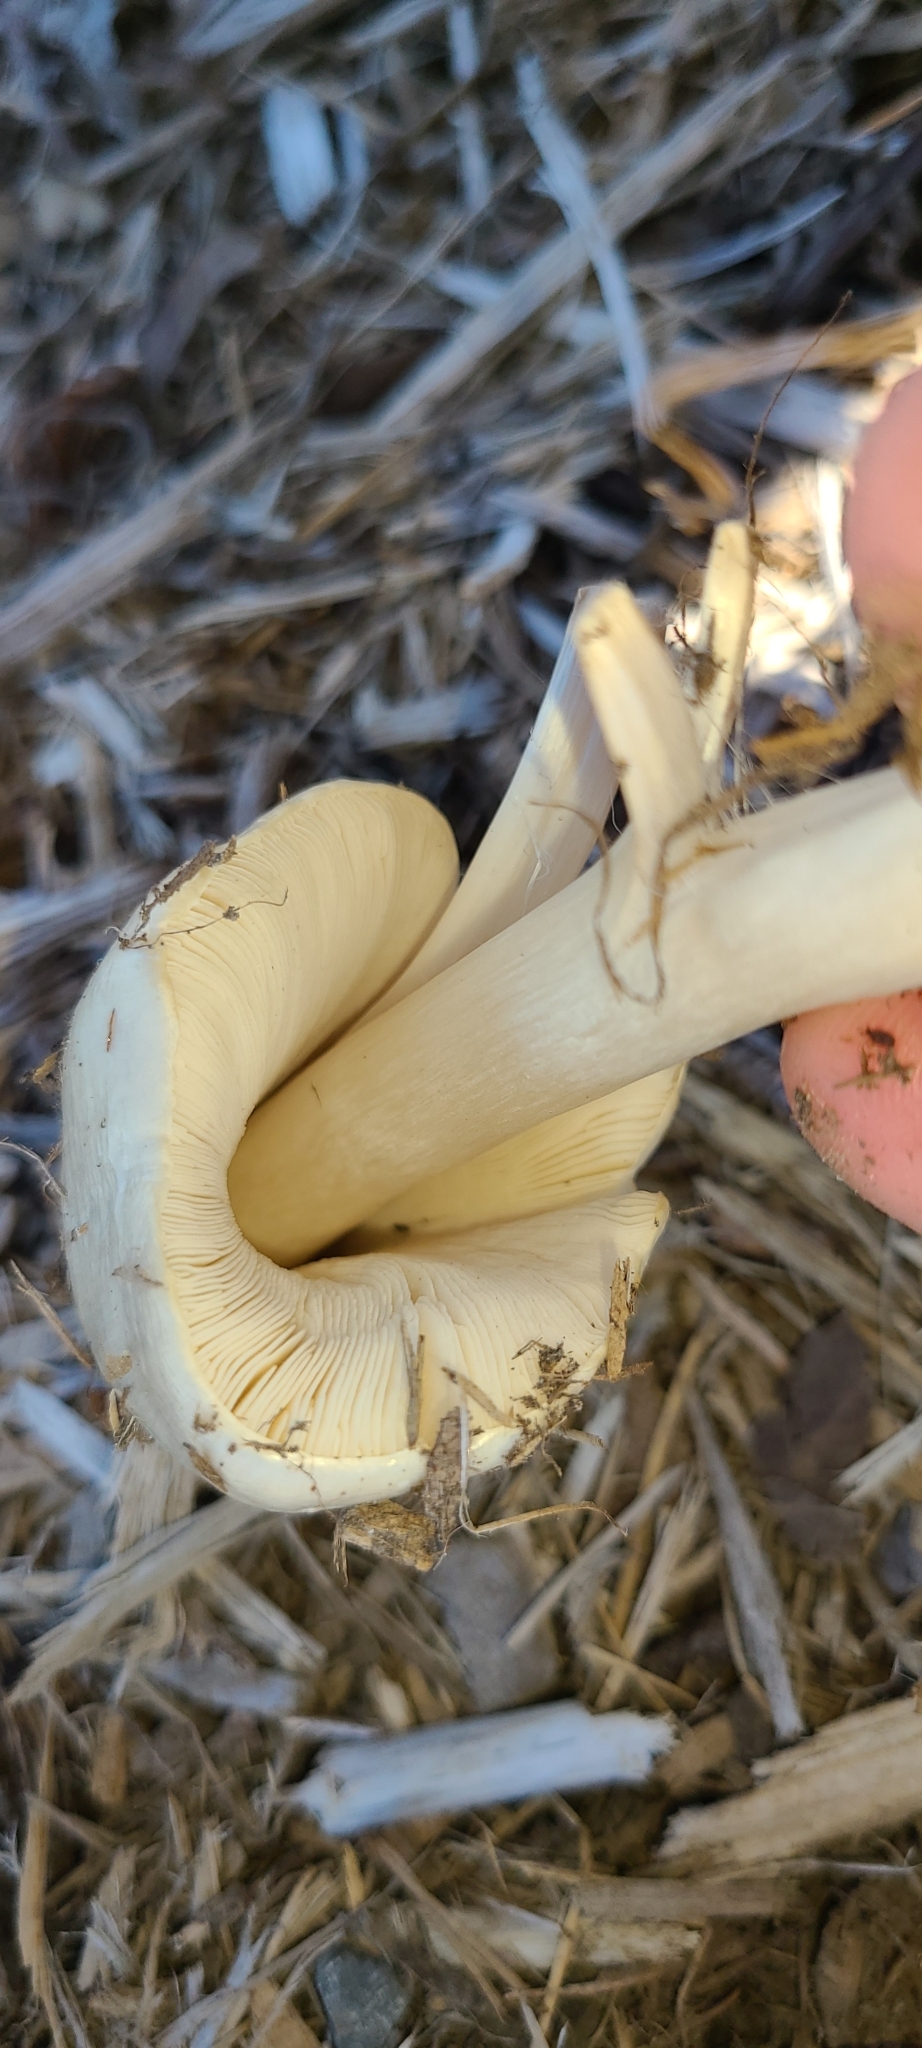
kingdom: Fungi
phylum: Basidiomycota
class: Agaricomycetes
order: Agaricales
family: Pluteaceae
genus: Volvopluteus
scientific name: Volvopluteus gloiocephalus
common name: Stubble rosegill
